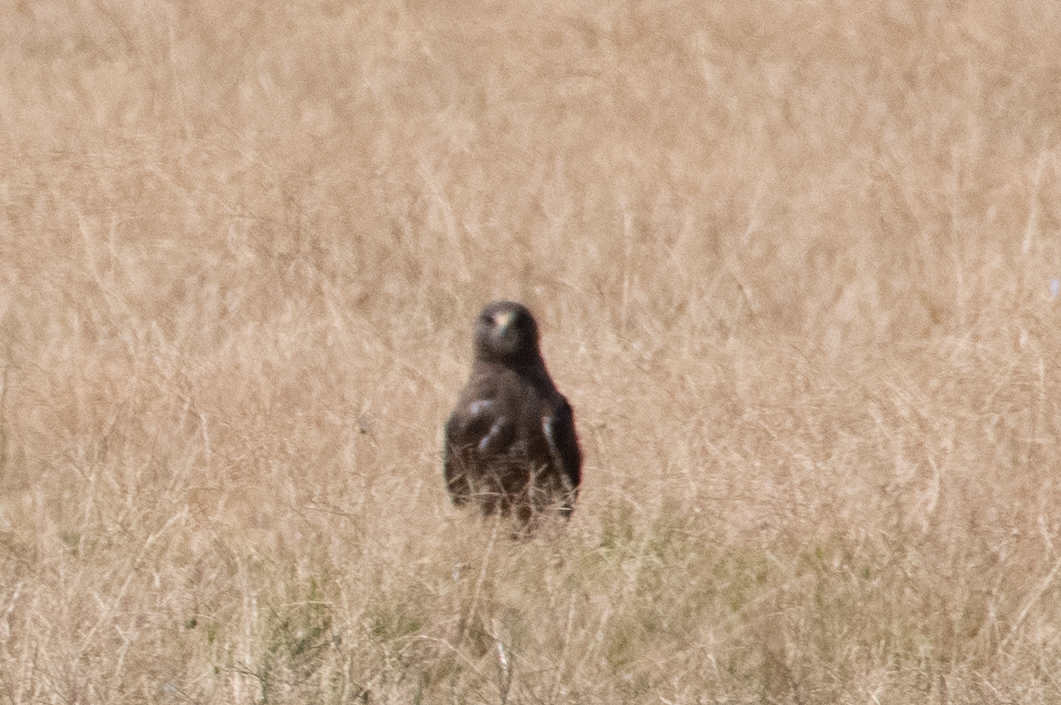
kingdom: Animalia
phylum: Chordata
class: Aves
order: Accipitriformes
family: Accipitridae
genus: Buteo
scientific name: Buteo swainsoni
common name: Swainson's hawk
